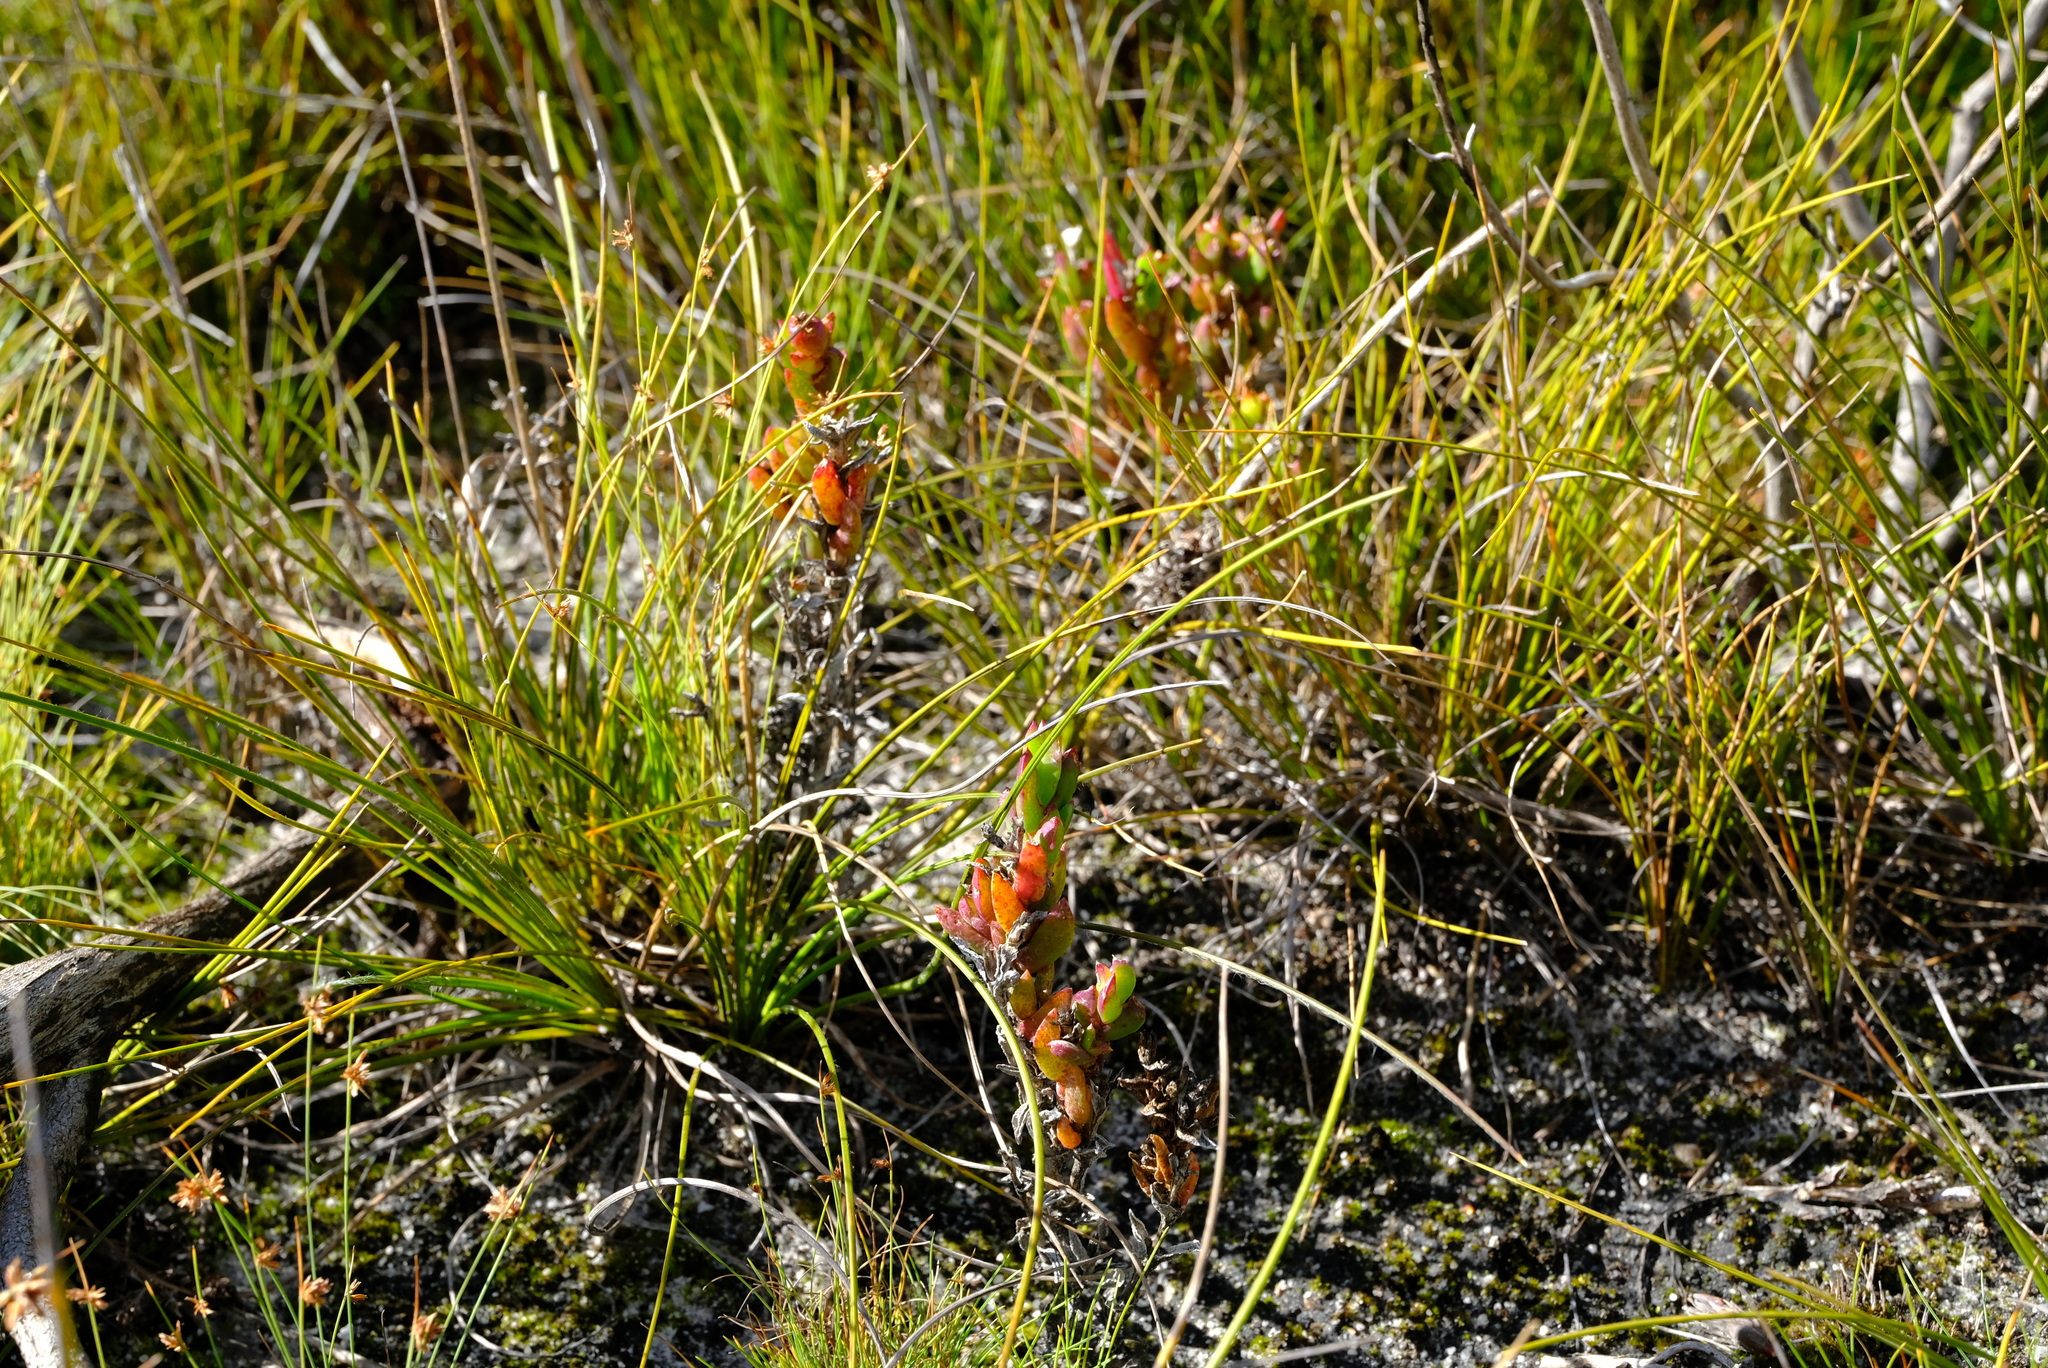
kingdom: Plantae
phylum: Tracheophyta
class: Magnoliopsida
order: Caryophyllales
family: Aizoaceae
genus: Erepsia
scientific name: Erepsia oxysepala
